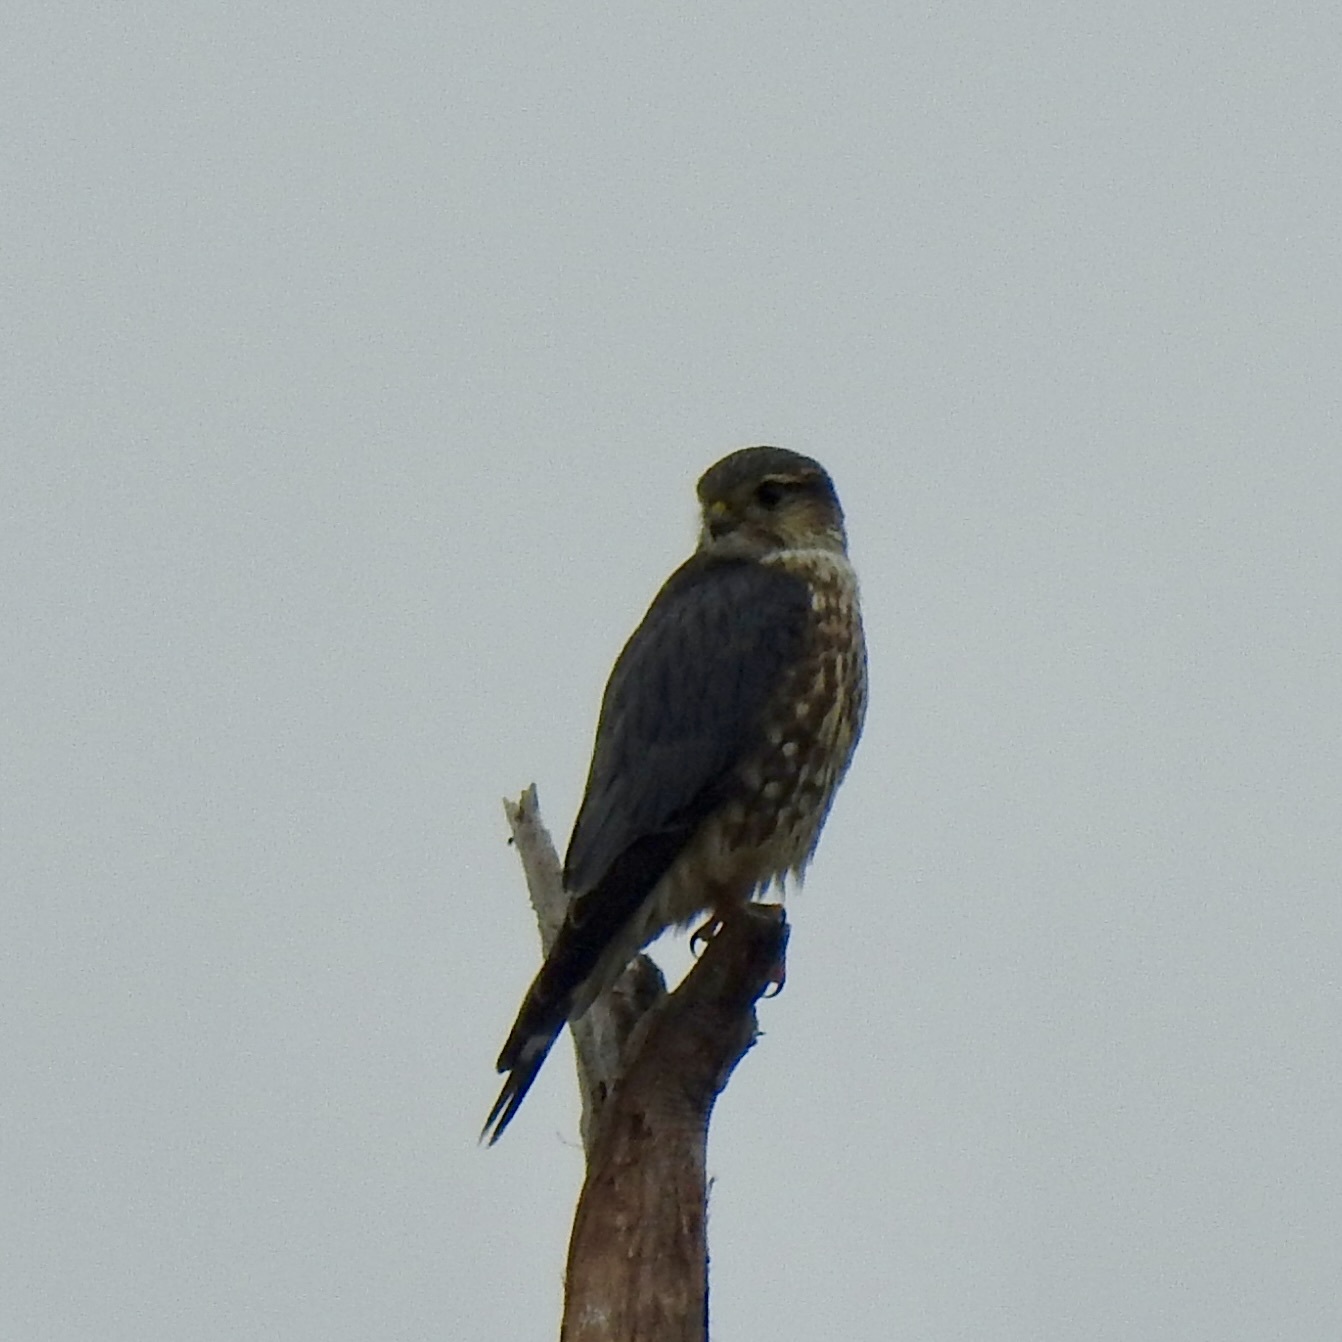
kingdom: Animalia
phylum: Chordata
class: Aves
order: Falconiformes
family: Falconidae
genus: Falco
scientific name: Falco columbarius
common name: Merlin
